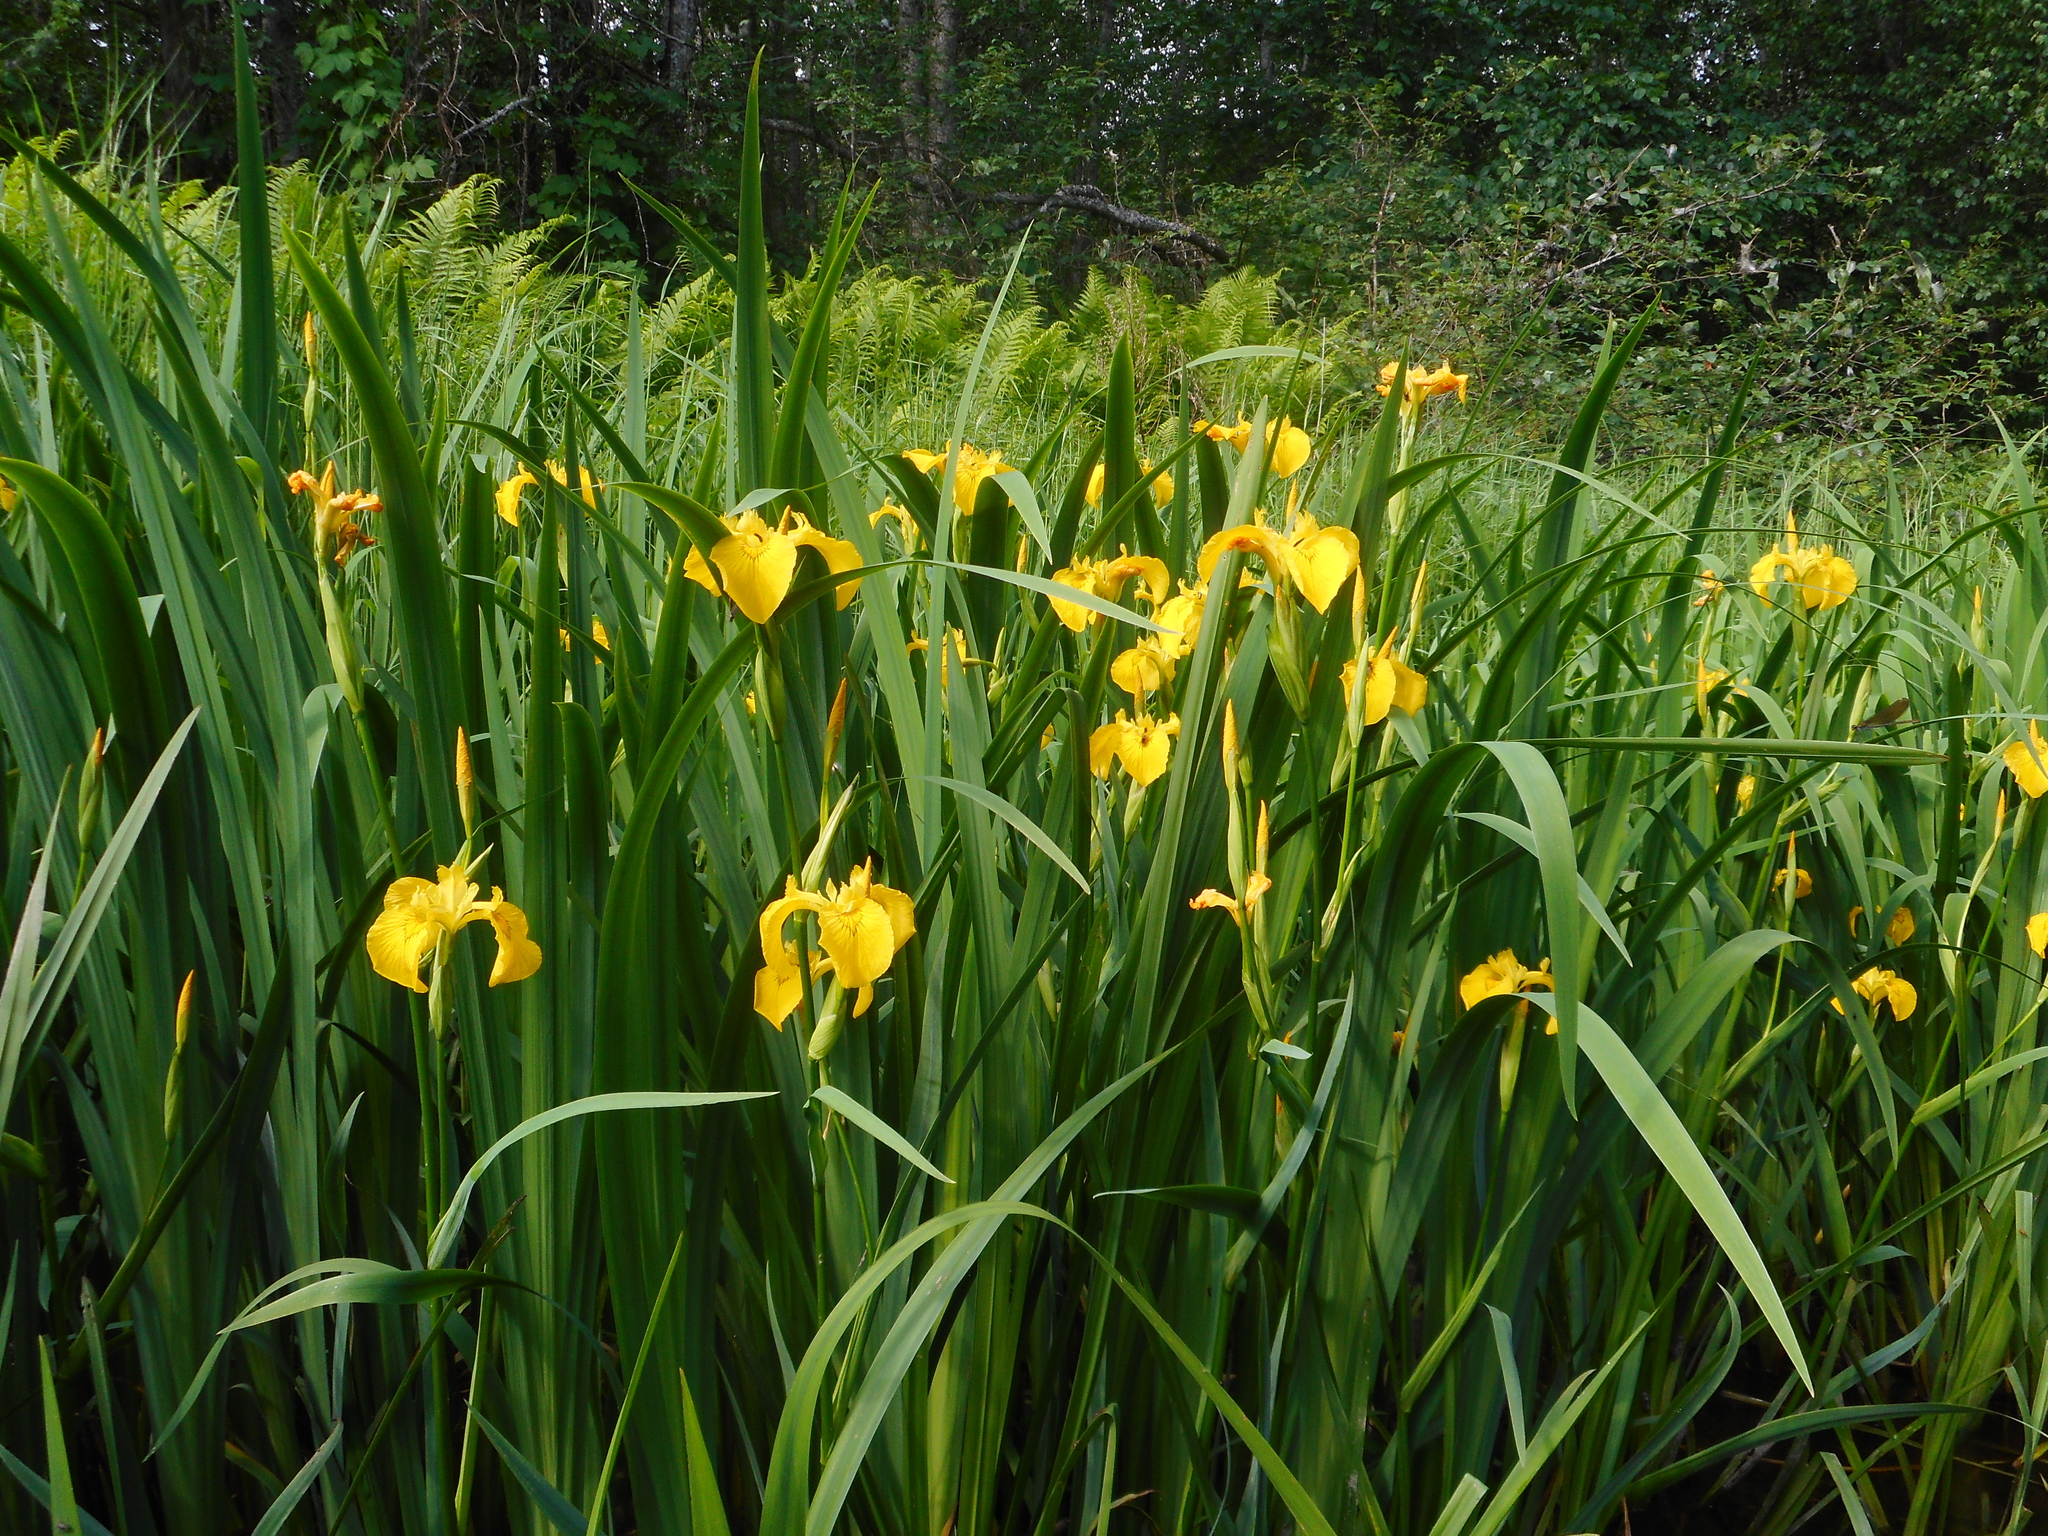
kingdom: Plantae
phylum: Tracheophyta
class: Liliopsida
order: Asparagales
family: Iridaceae
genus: Iris
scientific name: Iris pseudacorus
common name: Yellow flag
